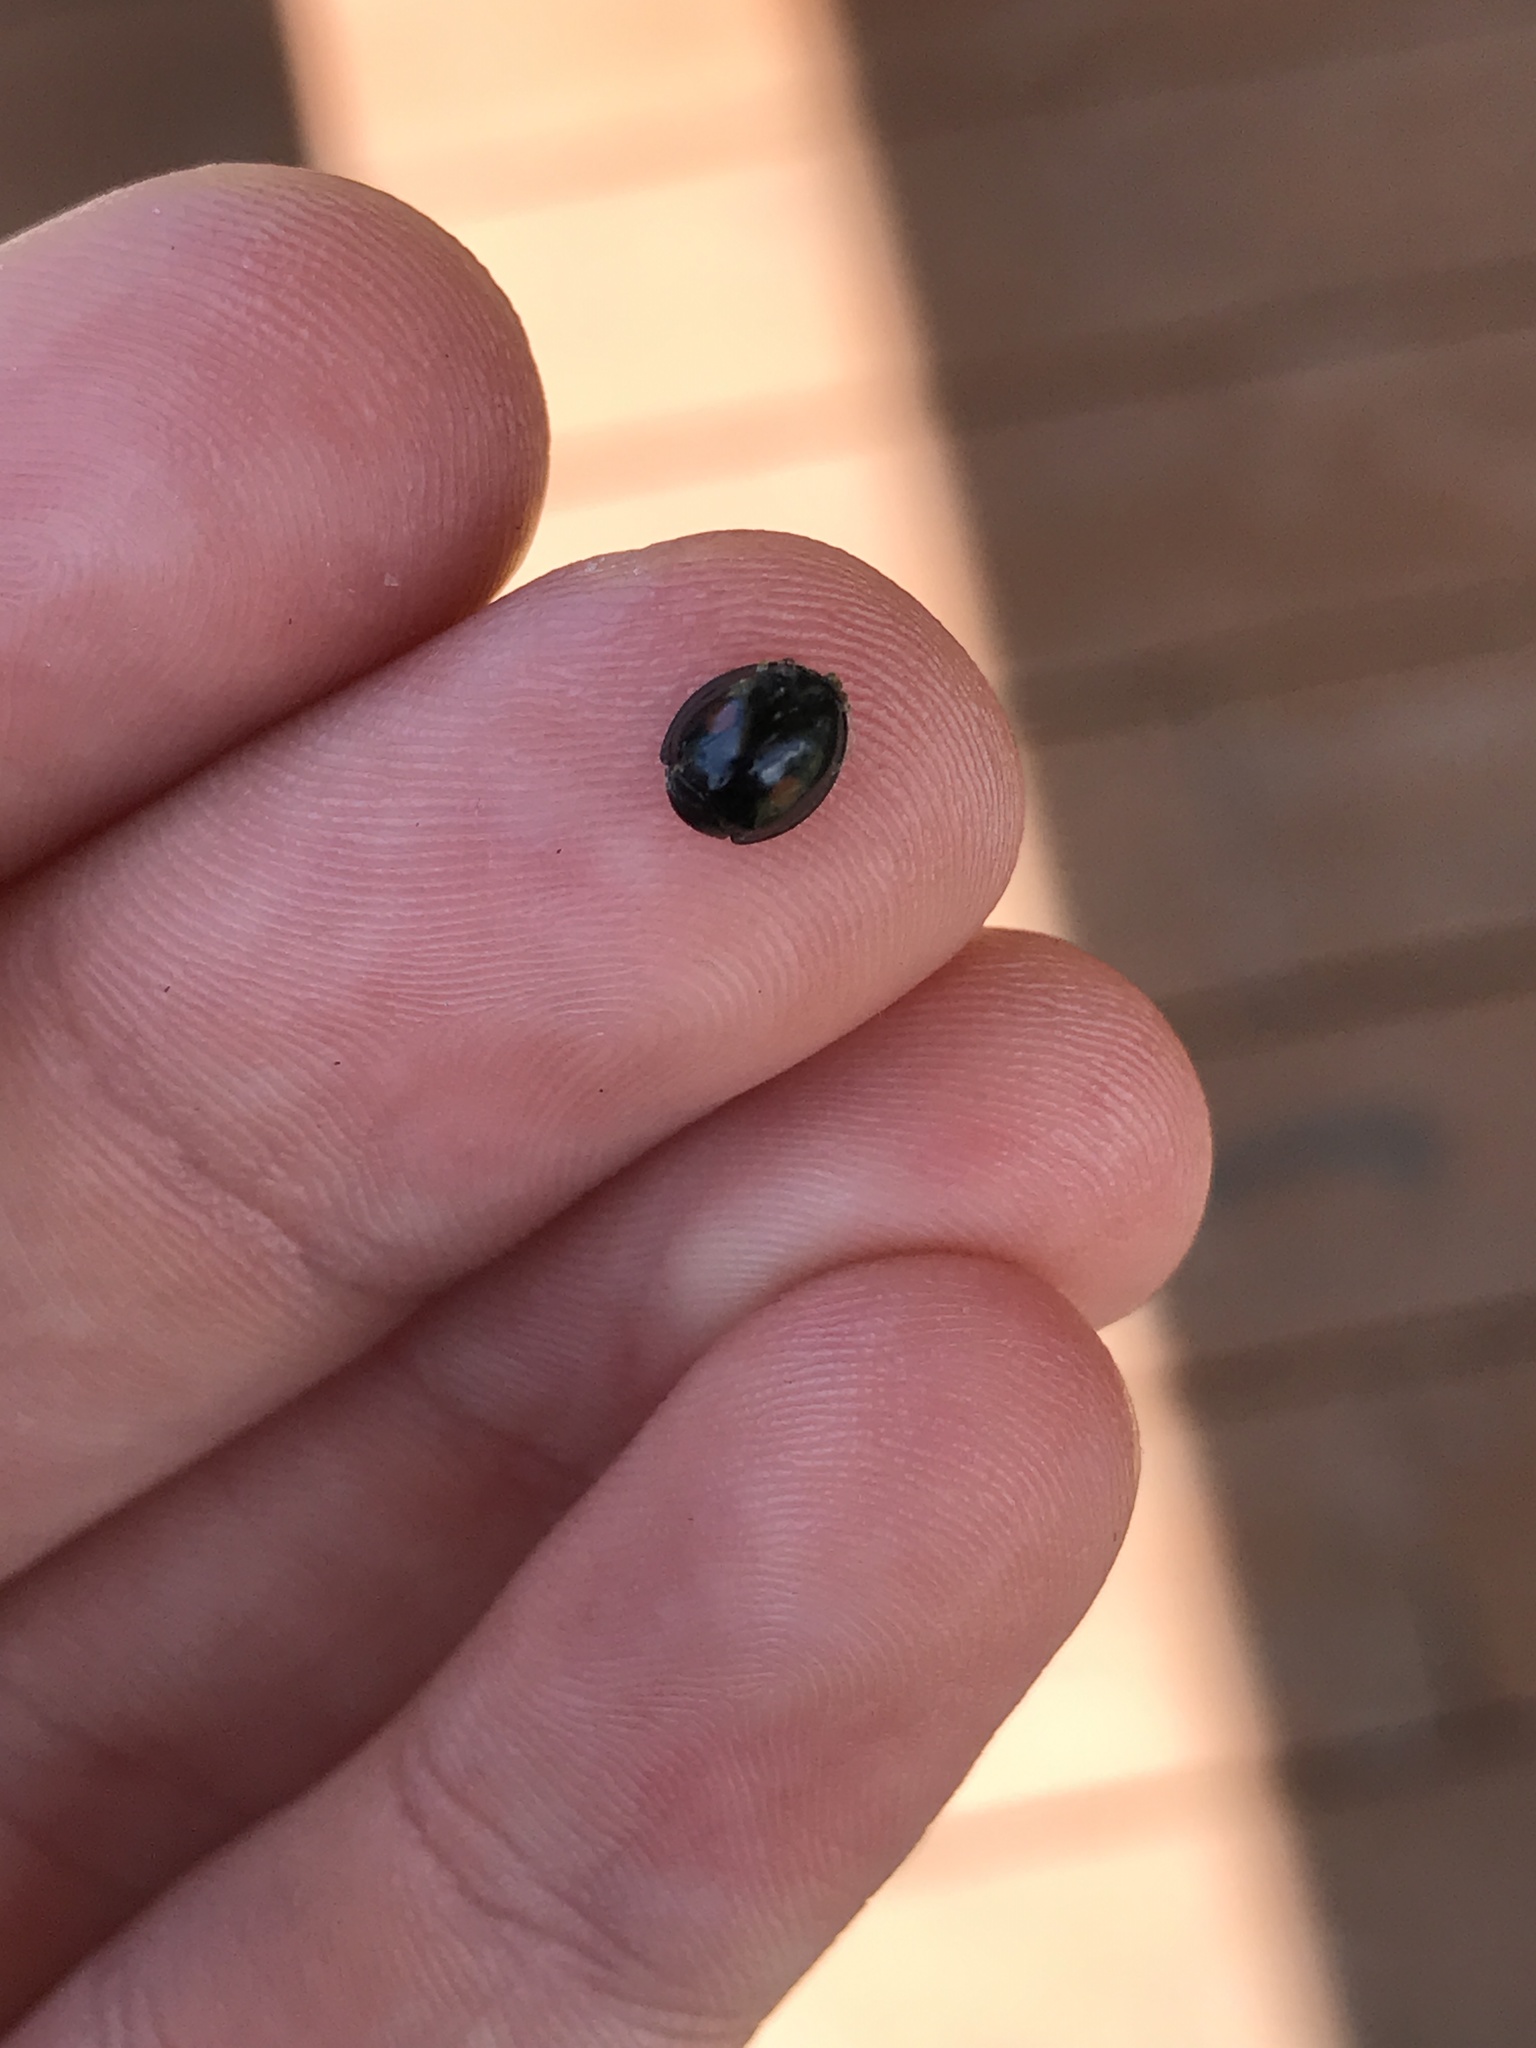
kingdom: Animalia
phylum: Arthropoda
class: Insecta
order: Coleoptera
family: Coccinellidae
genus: Chilocorus
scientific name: Chilocorus stigma
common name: Twicestabbed lady beetle
